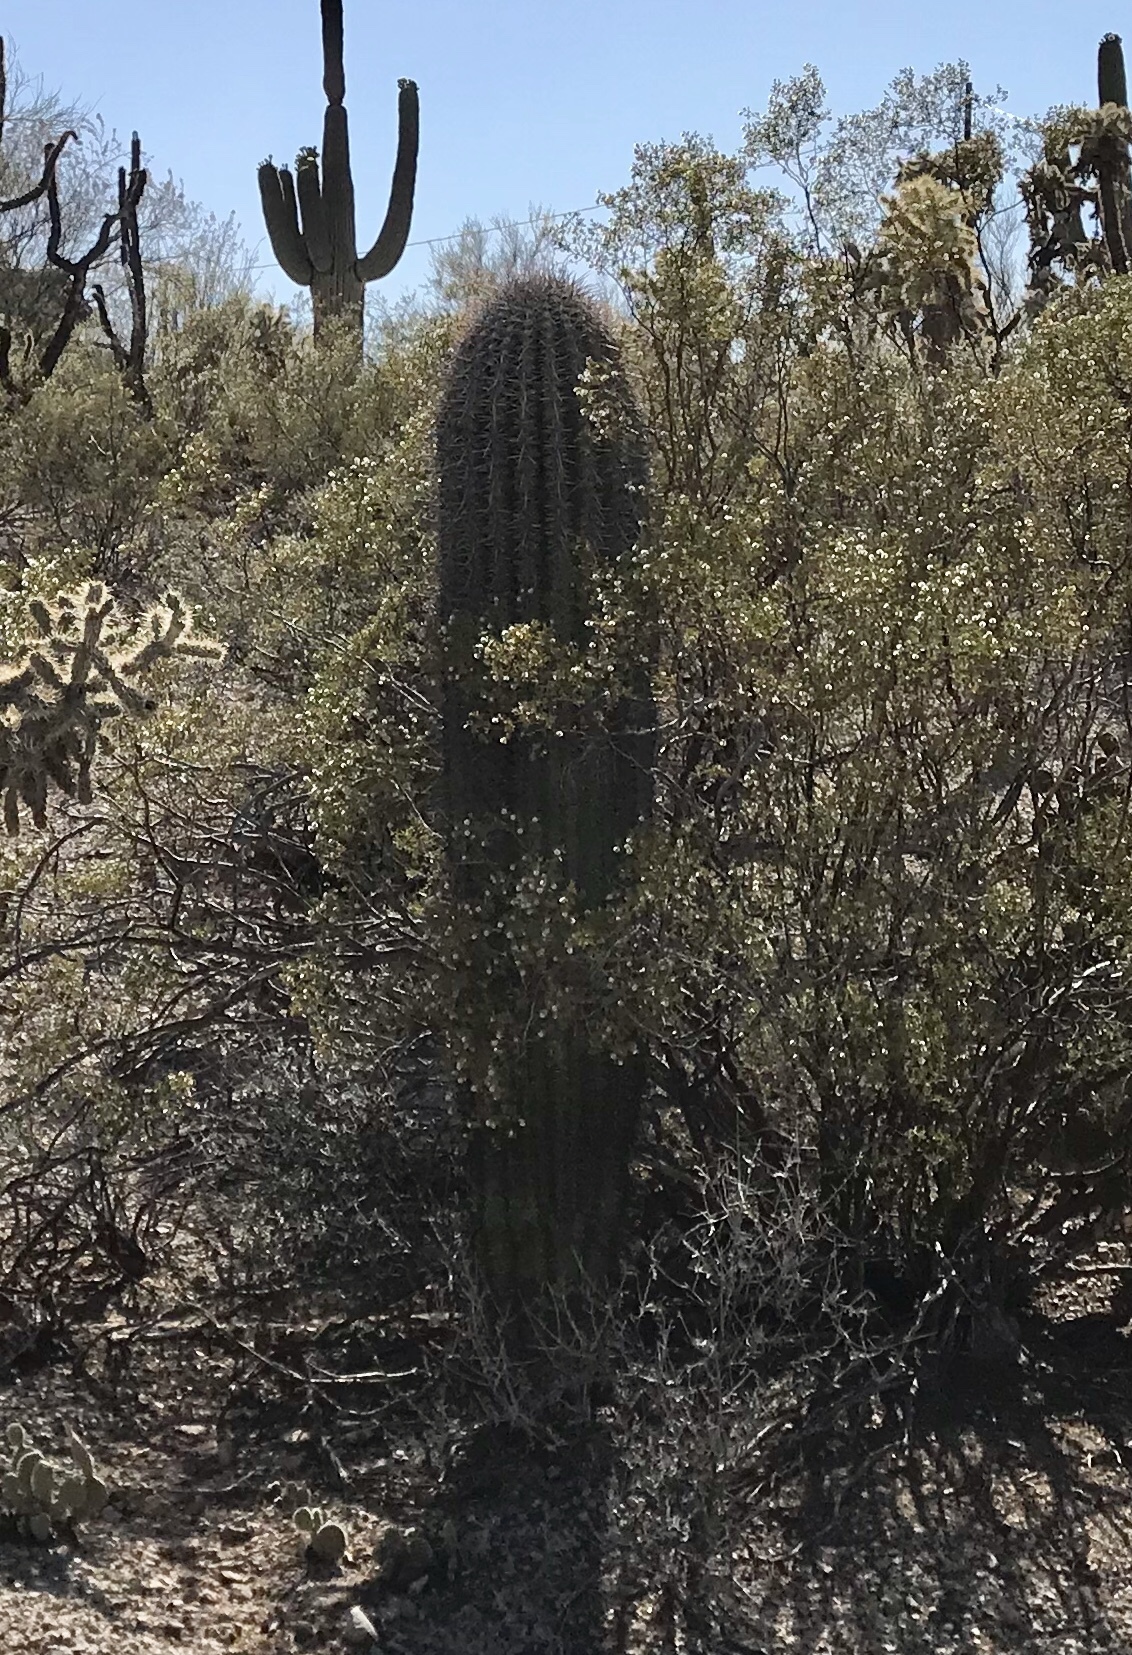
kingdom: Plantae
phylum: Tracheophyta
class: Magnoliopsida
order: Caryophyllales
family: Cactaceae
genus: Carnegiea
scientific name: Carnegiea gigantea
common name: Saguaro
